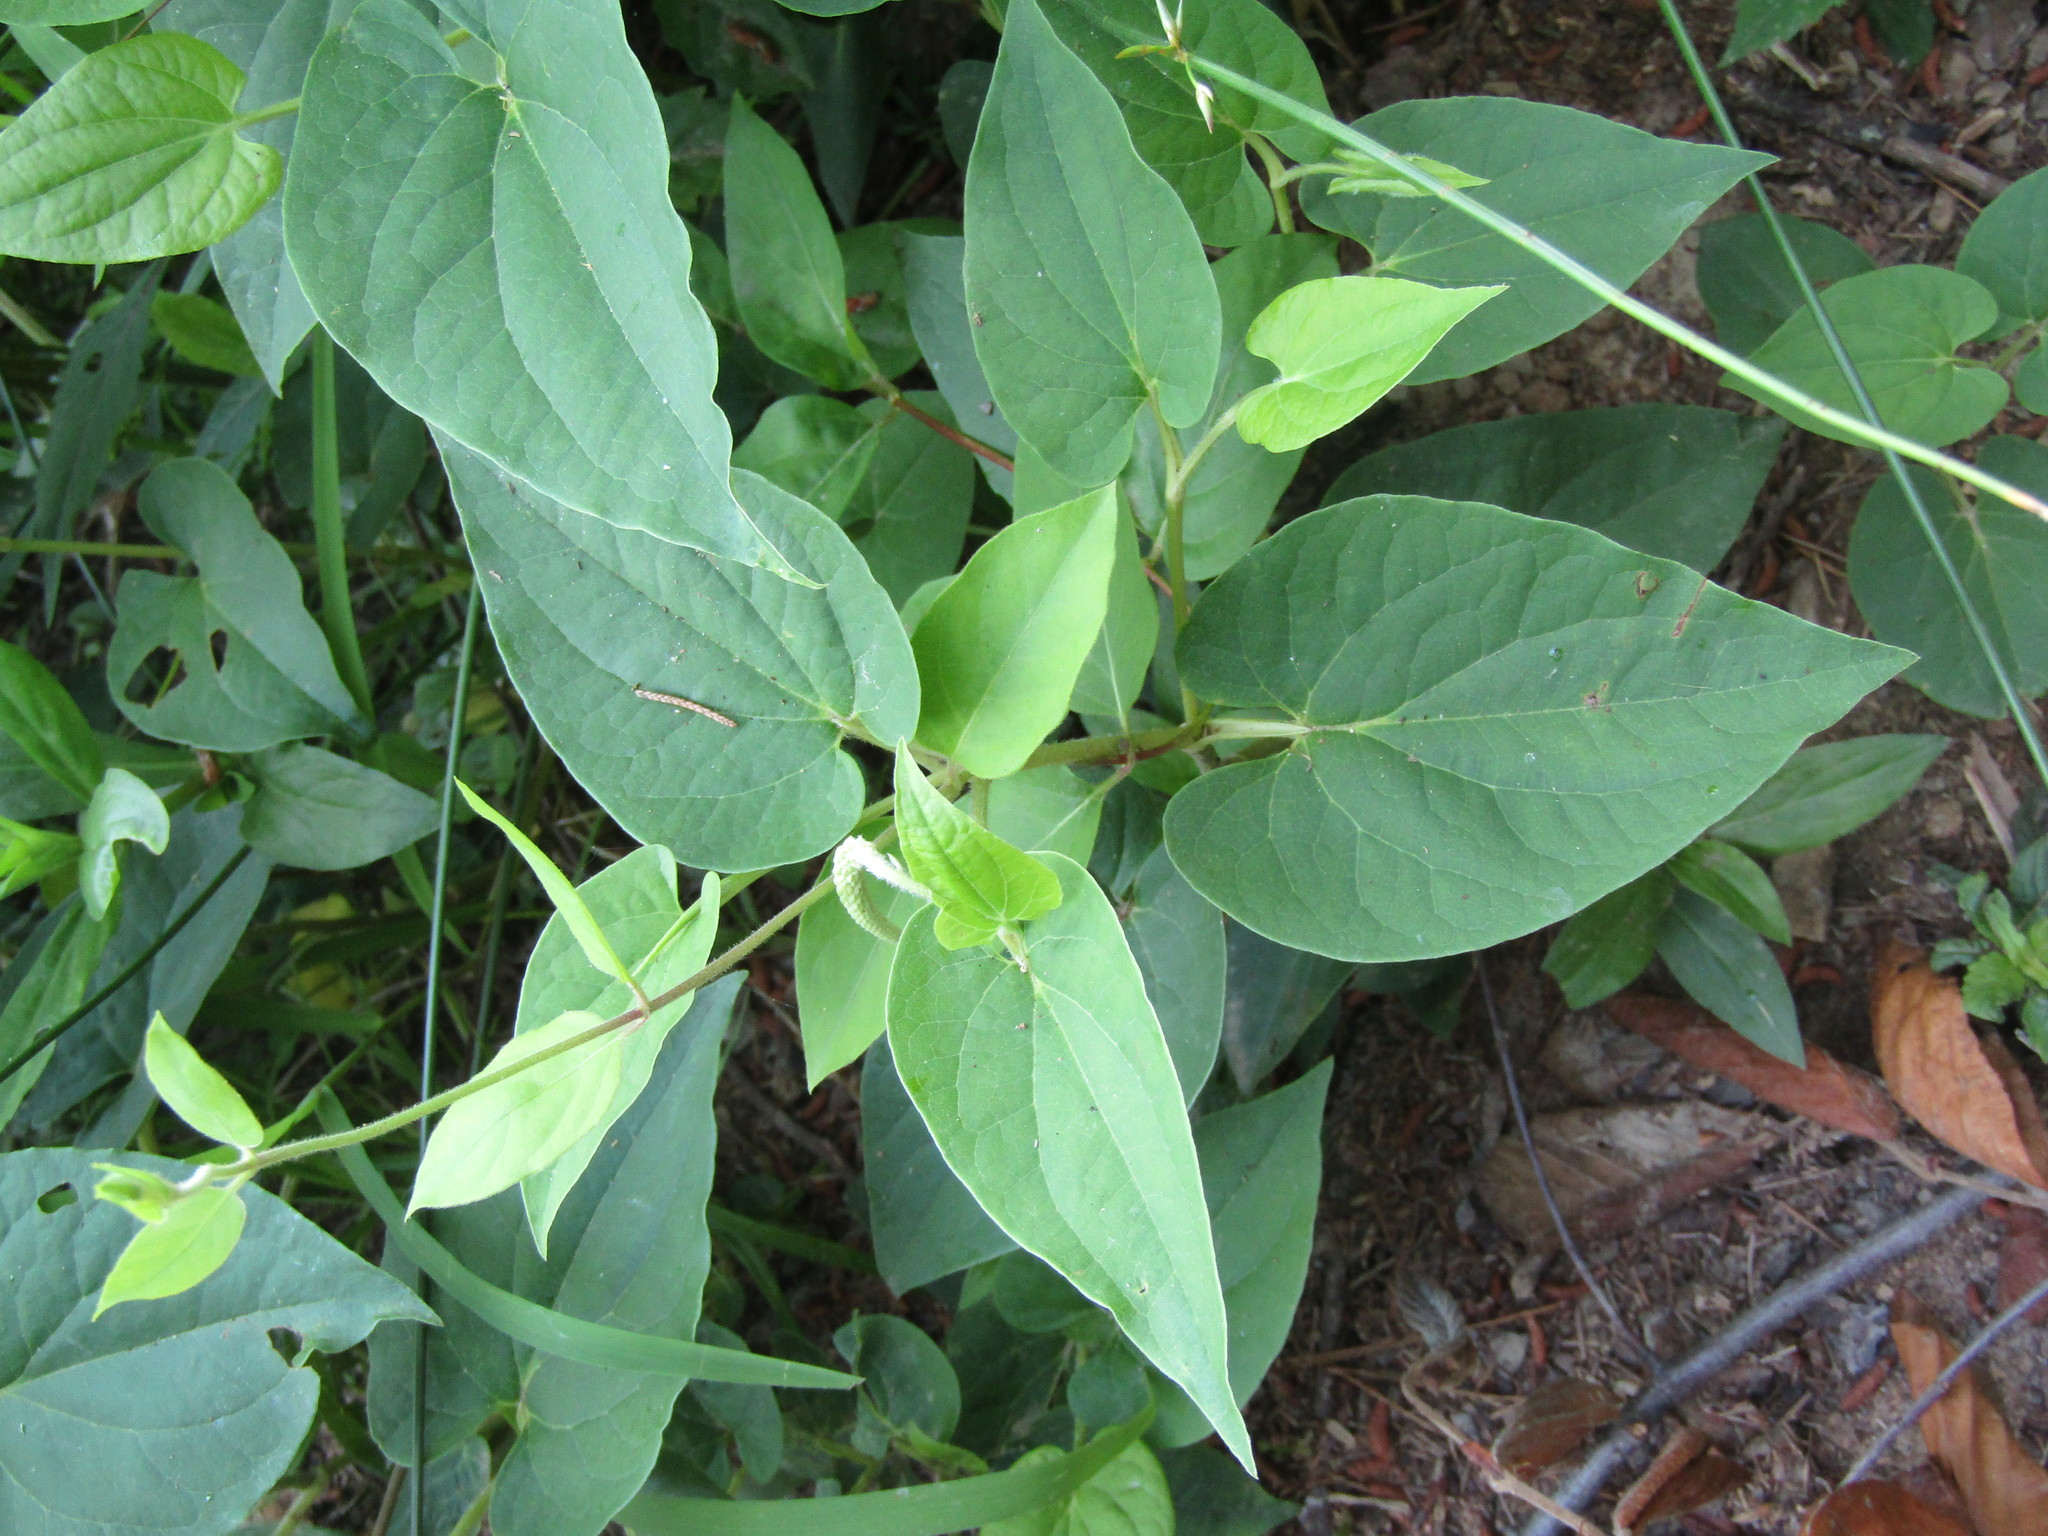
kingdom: Plantae
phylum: Tracheophyta
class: Magnoliopsida
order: Piperales
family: Saururaceae
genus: Saururus
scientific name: Saururus cernuus
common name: Lizard's-tail
